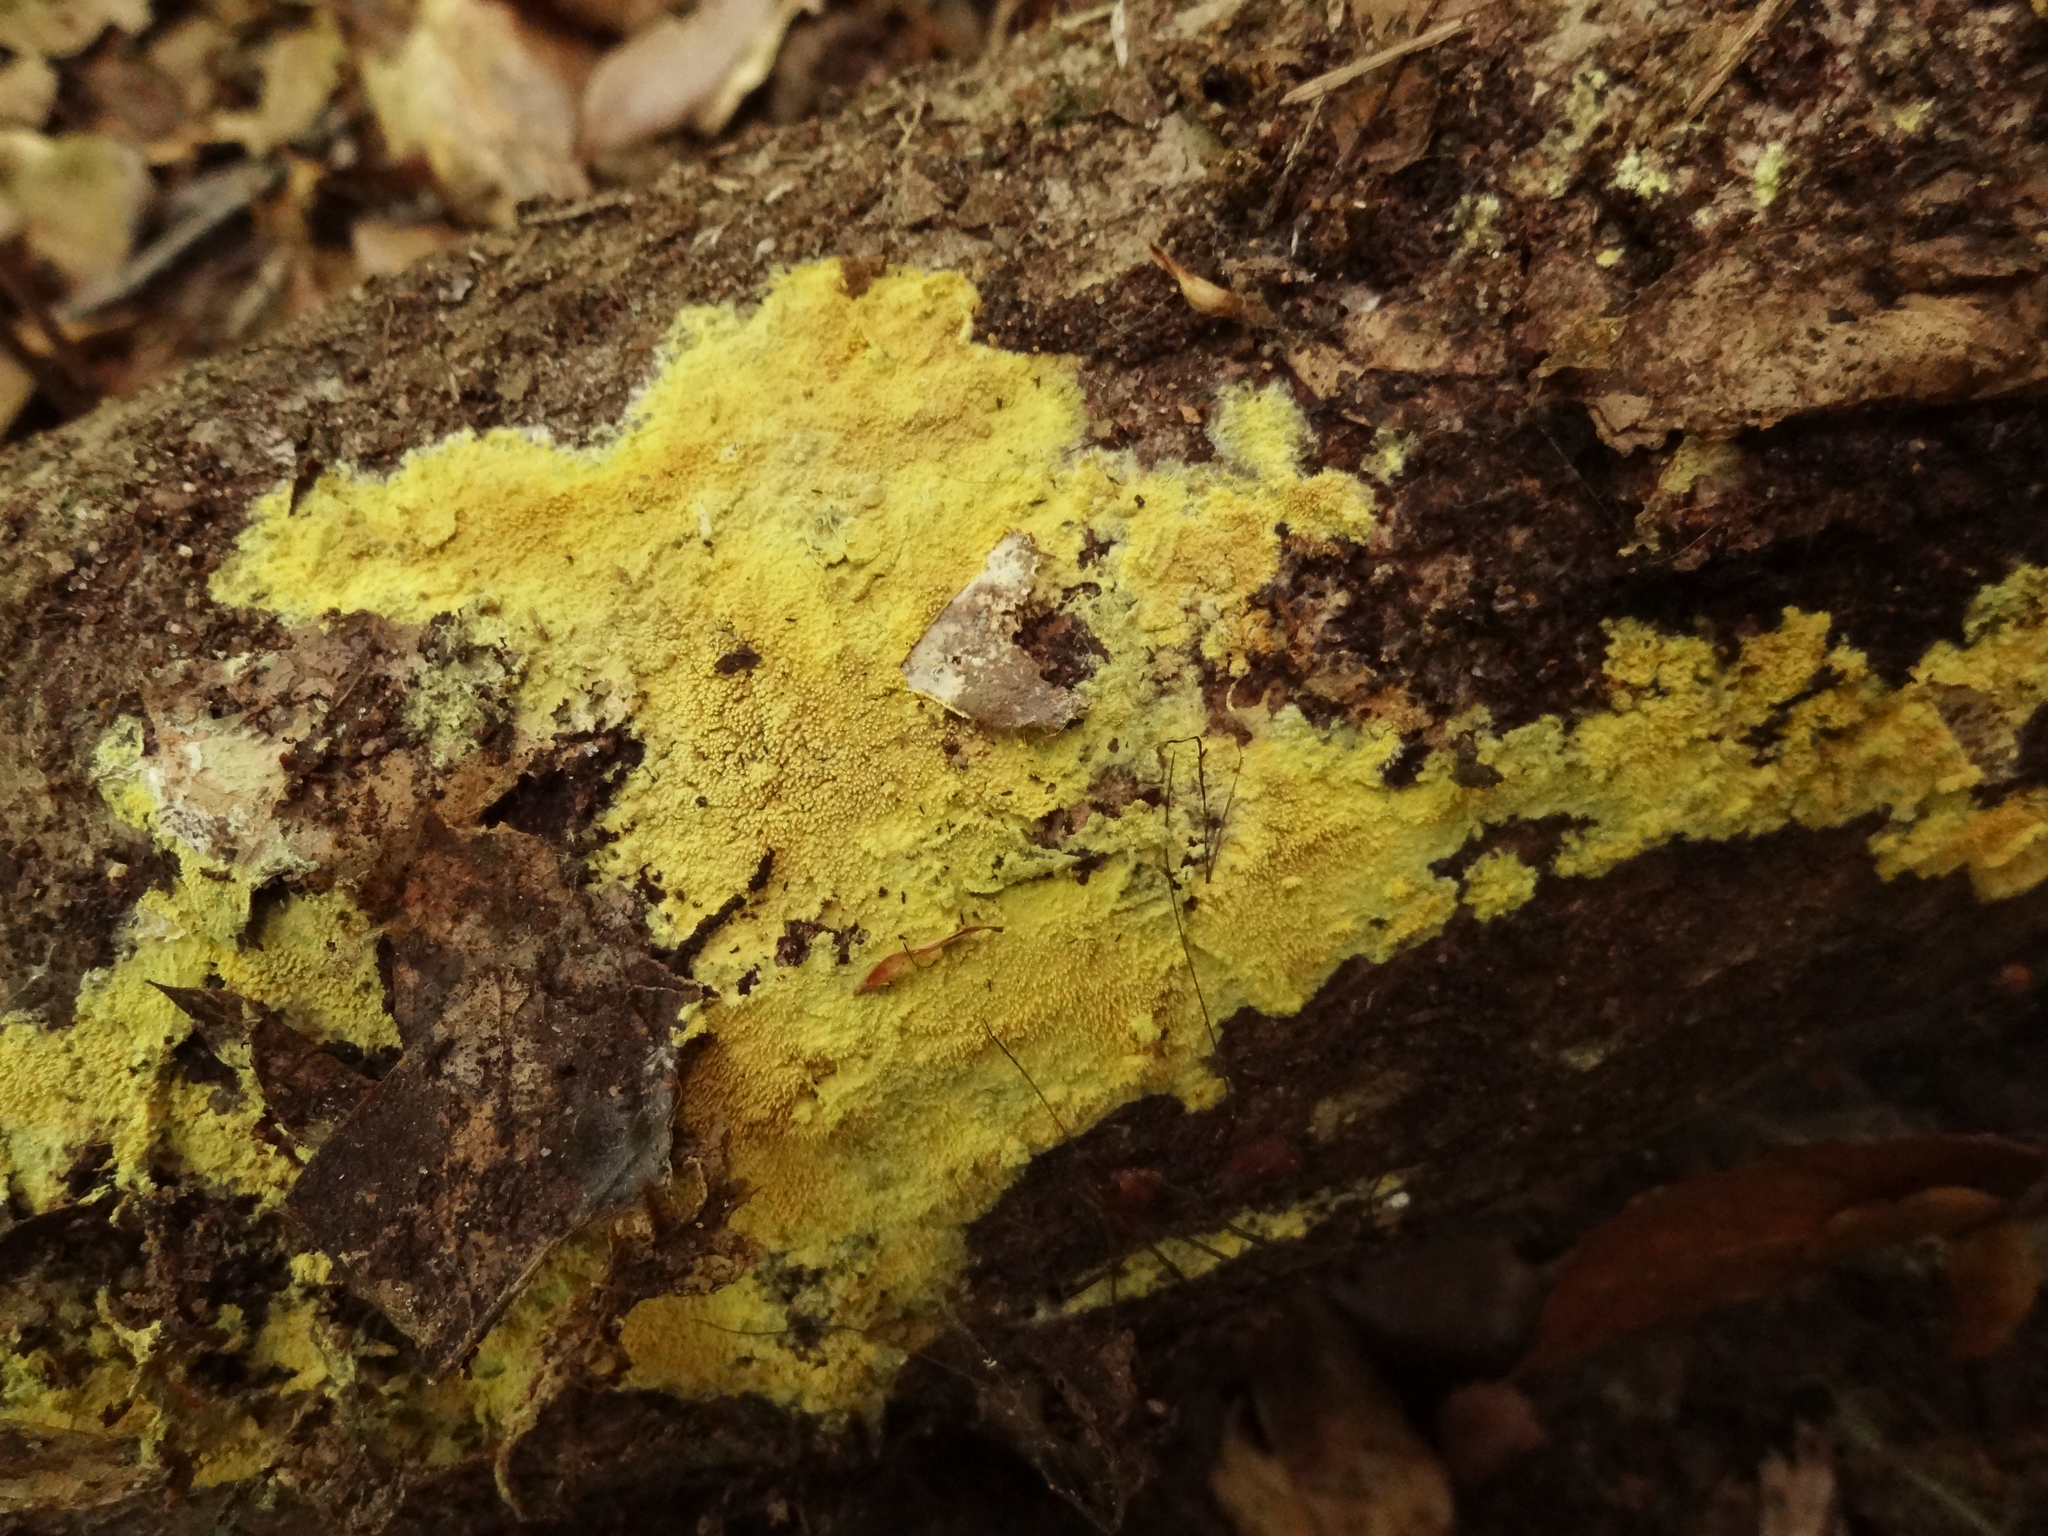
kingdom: Fungi
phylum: Basidiomycota
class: Agaricomycetes
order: Polyporales
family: Meruliaceae
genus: Mycoacia
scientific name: Mycoacia uda
